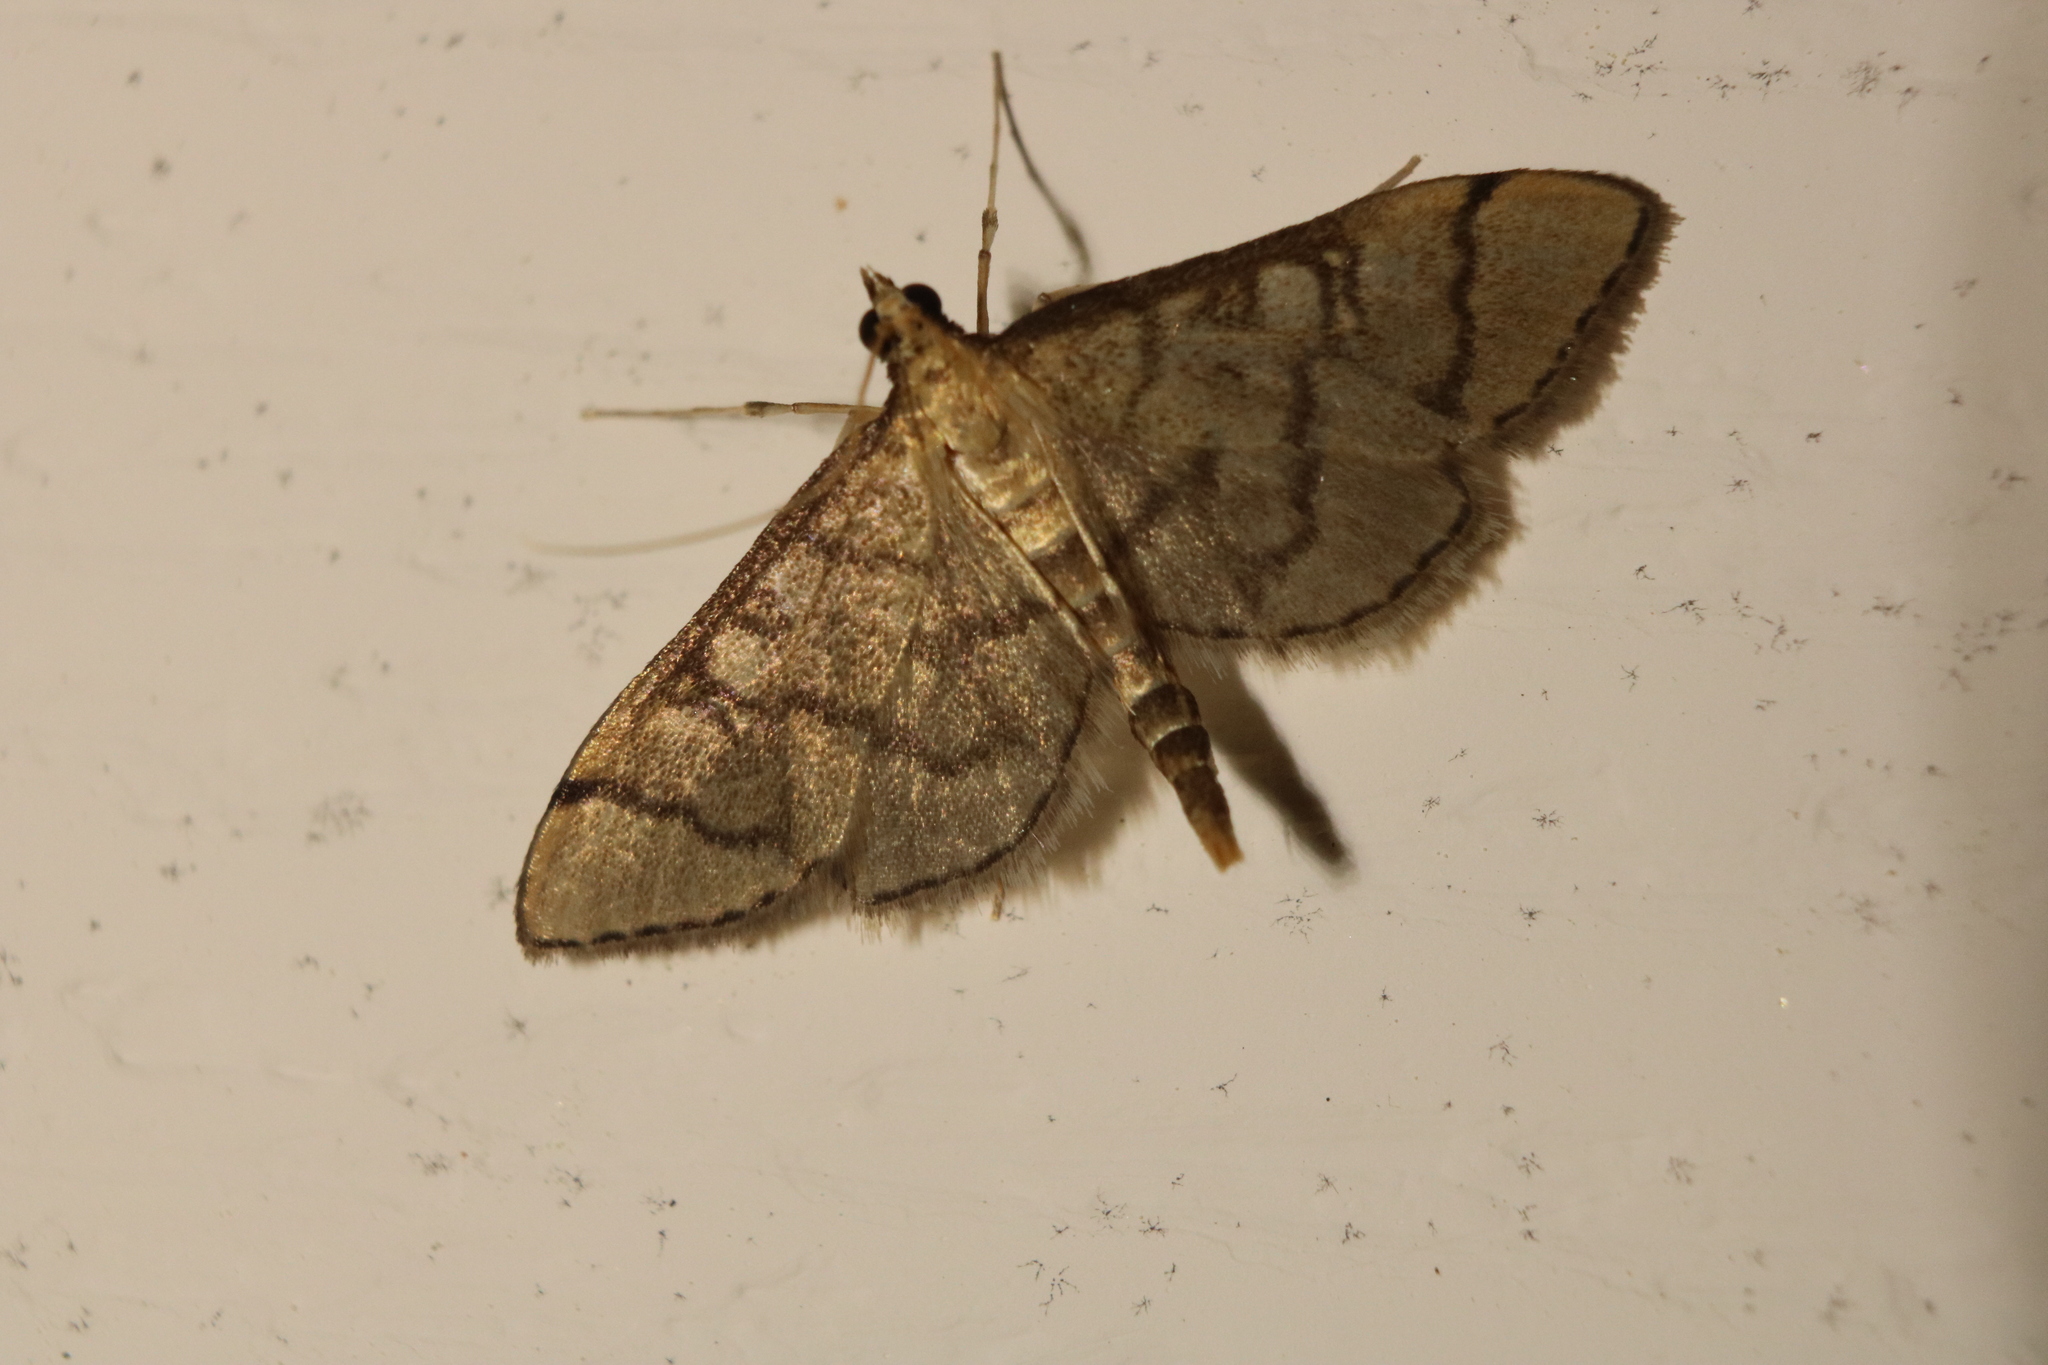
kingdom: Animalia
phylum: Arthropoda
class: Insecta
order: Lepidoptera
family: Crambidae
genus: Lamprosema
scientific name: Lamprosema Blepharomastix ranalis
